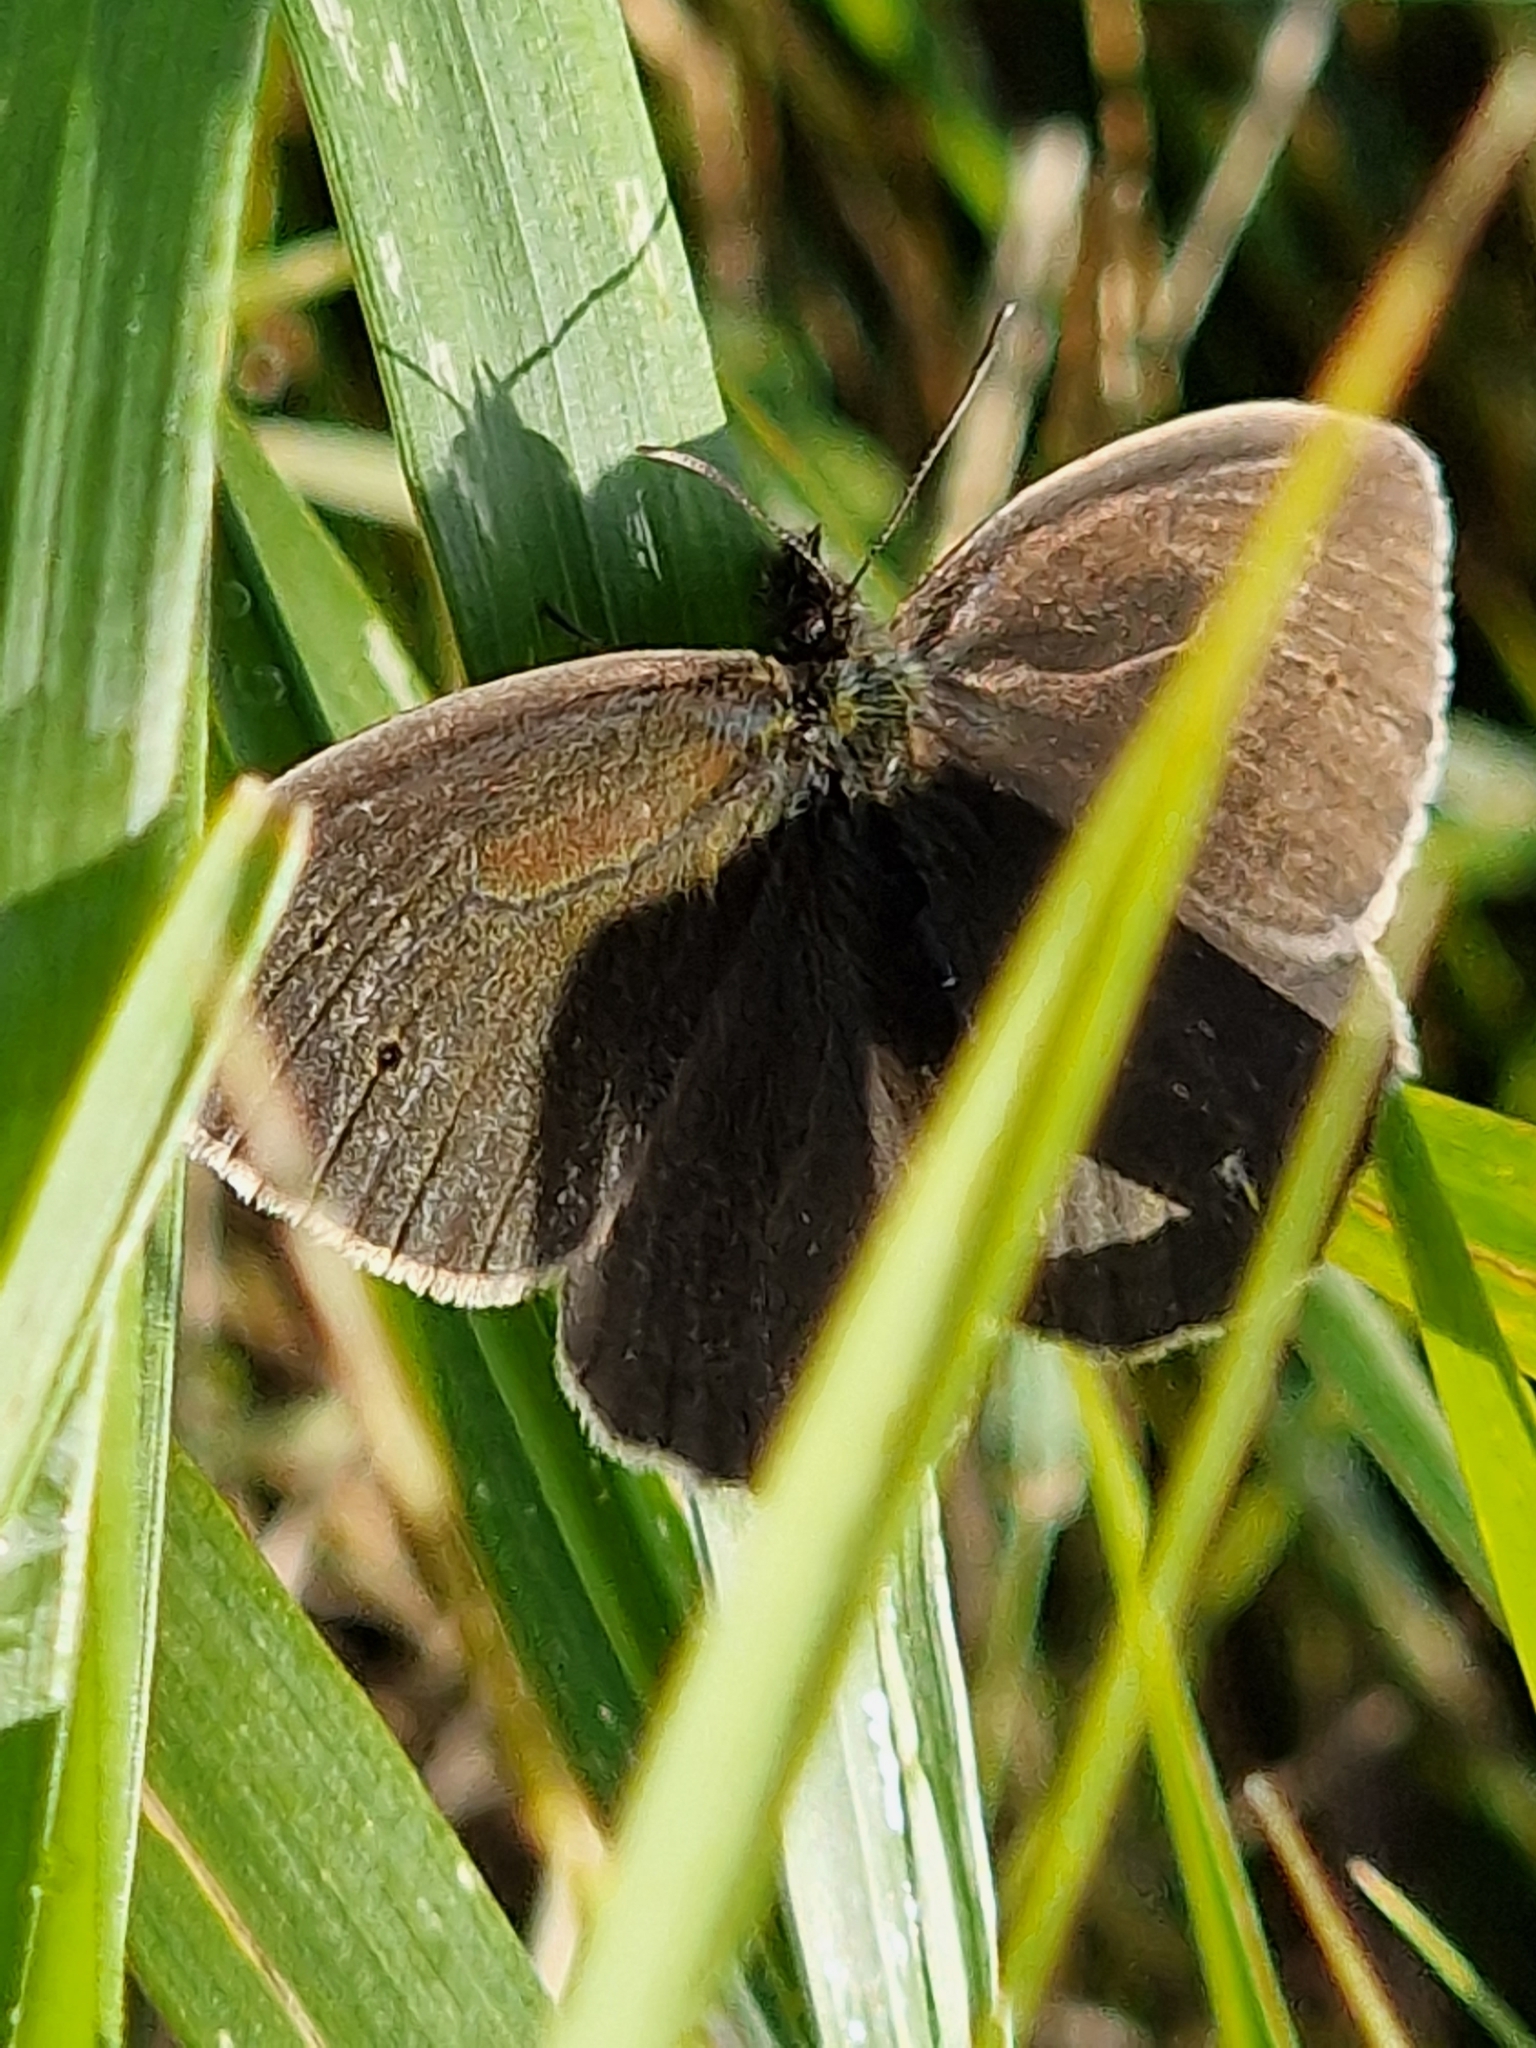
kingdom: Animalia
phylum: Arthropoda
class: Insecta
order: Lepidoptera
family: Nymphalidae
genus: Aphantopus
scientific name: Aphantopus hyperantus
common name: Ringlet
